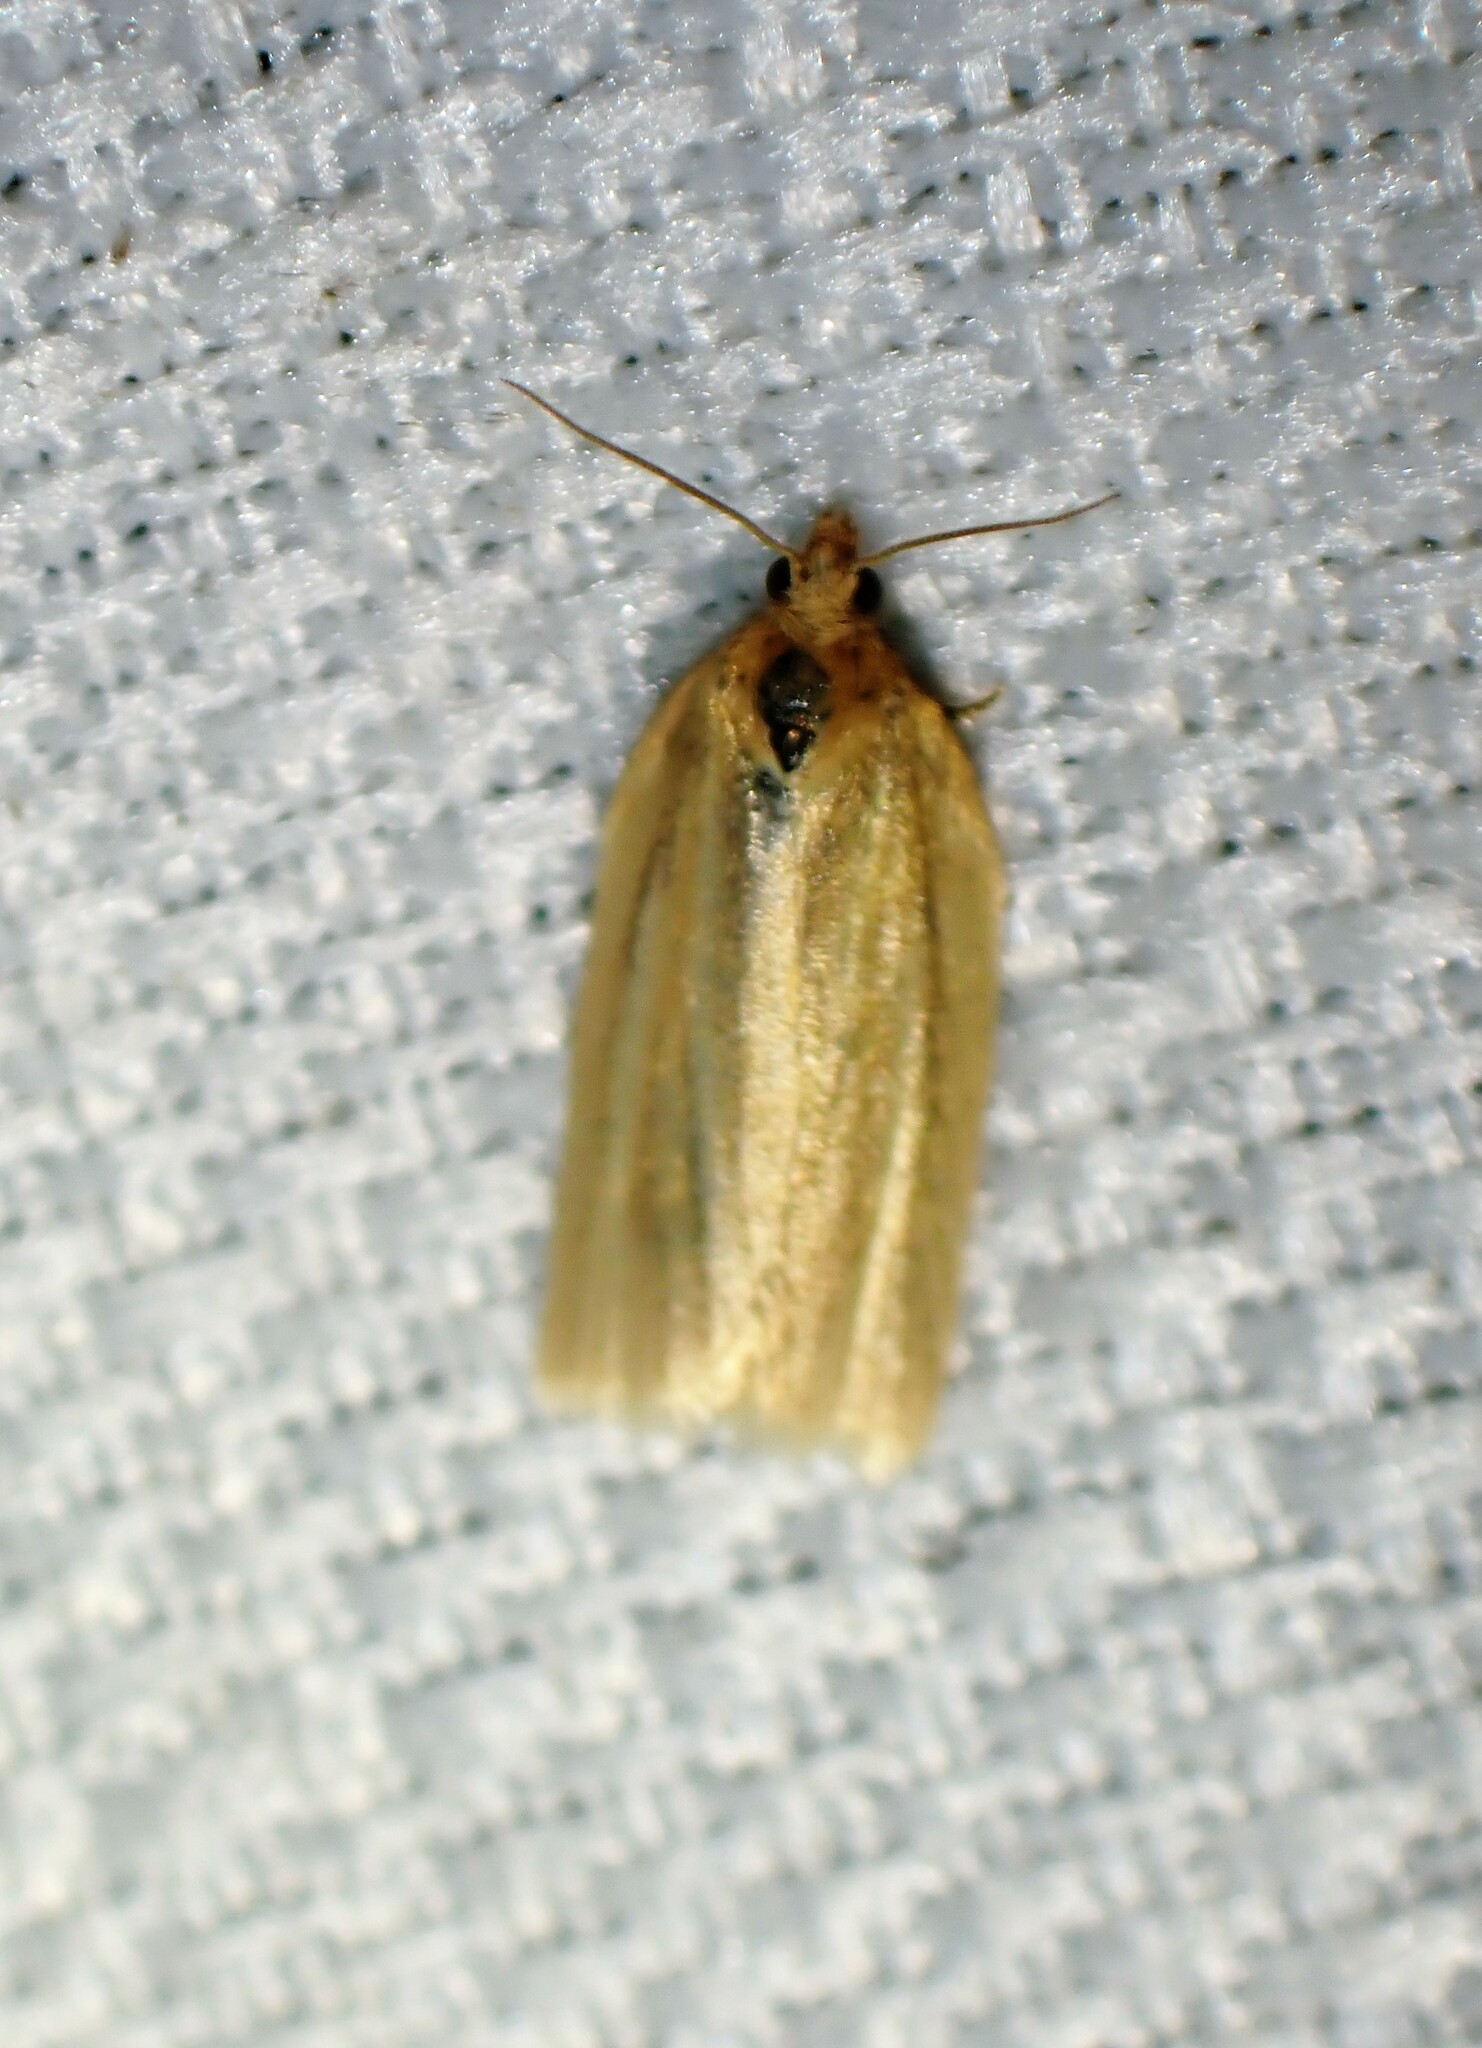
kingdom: Animalia
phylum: Arthropoda
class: Insecta
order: Lepidoptera
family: Tortricidae
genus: Clepsis
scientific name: Clepsis clemensiana
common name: Clemens' clepsis moth
